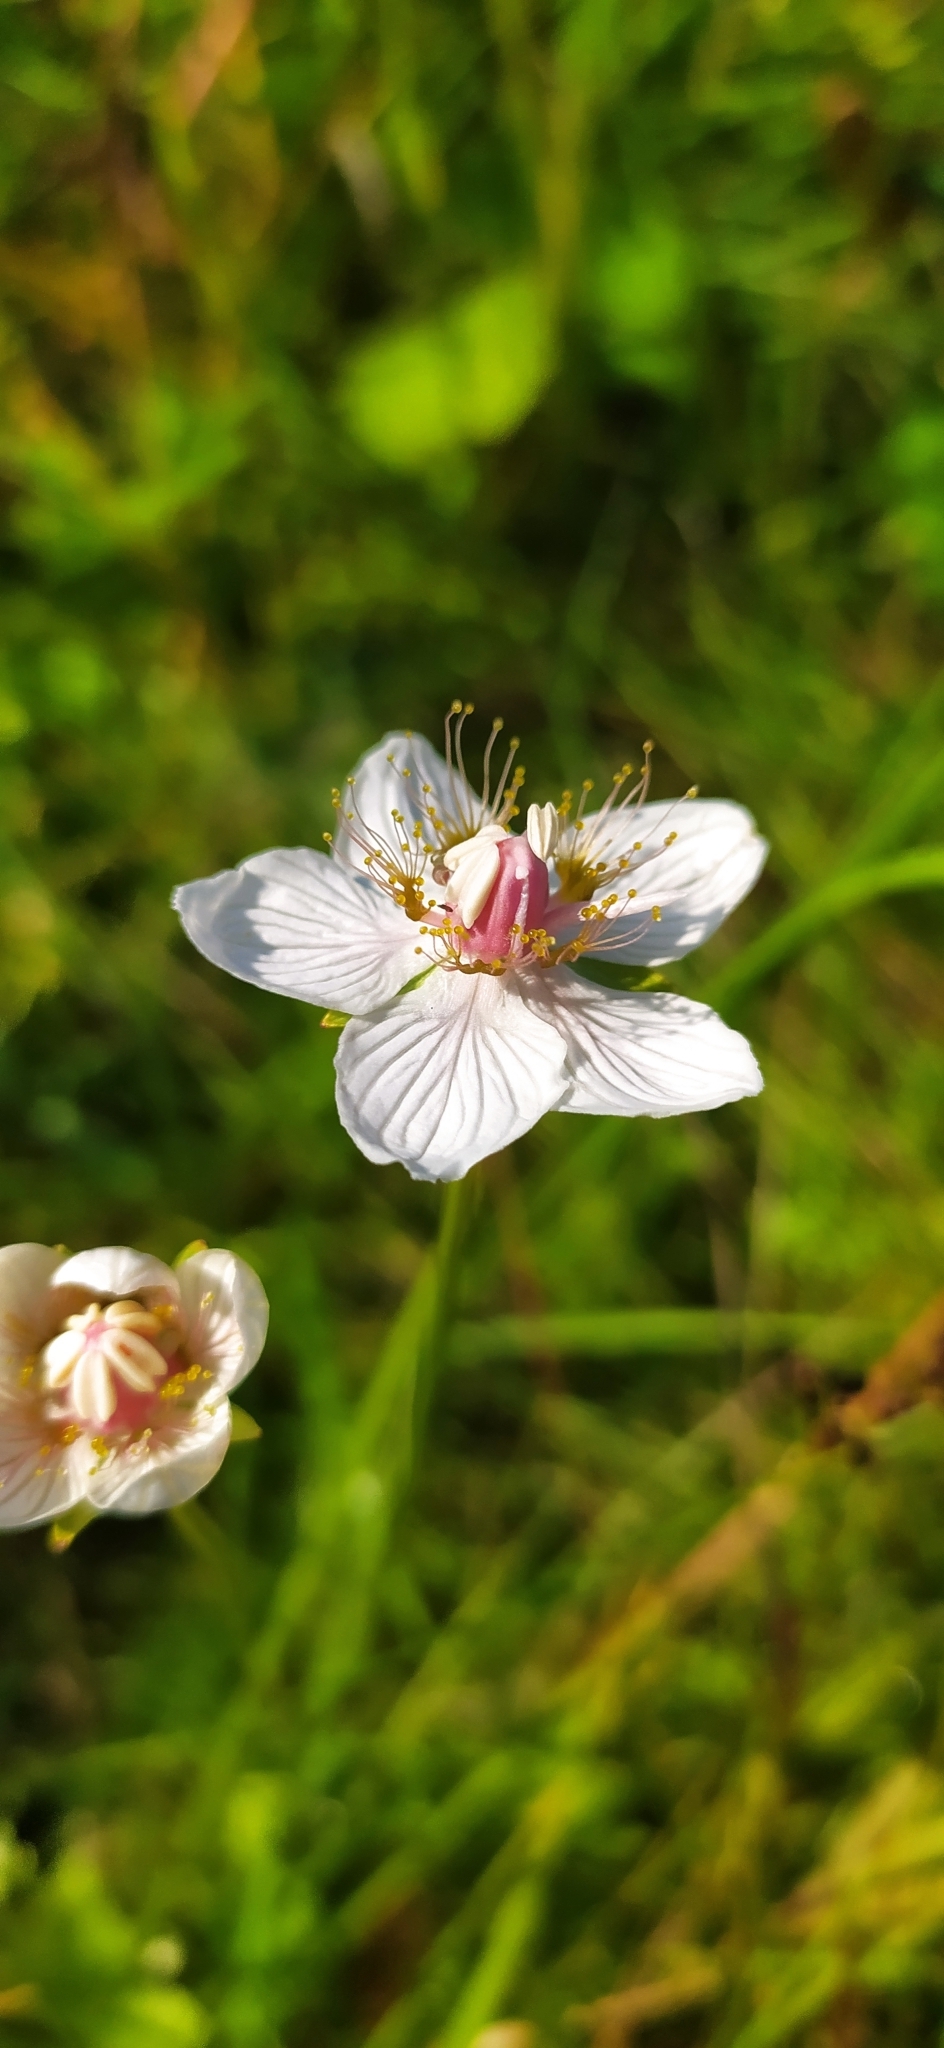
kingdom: Plantae
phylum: Tracheophyta
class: Magnoliopsida
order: Celastrales
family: Parnassiaceae
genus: Parnassia
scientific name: Parnassia palustris
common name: Grass-of-parnassus
